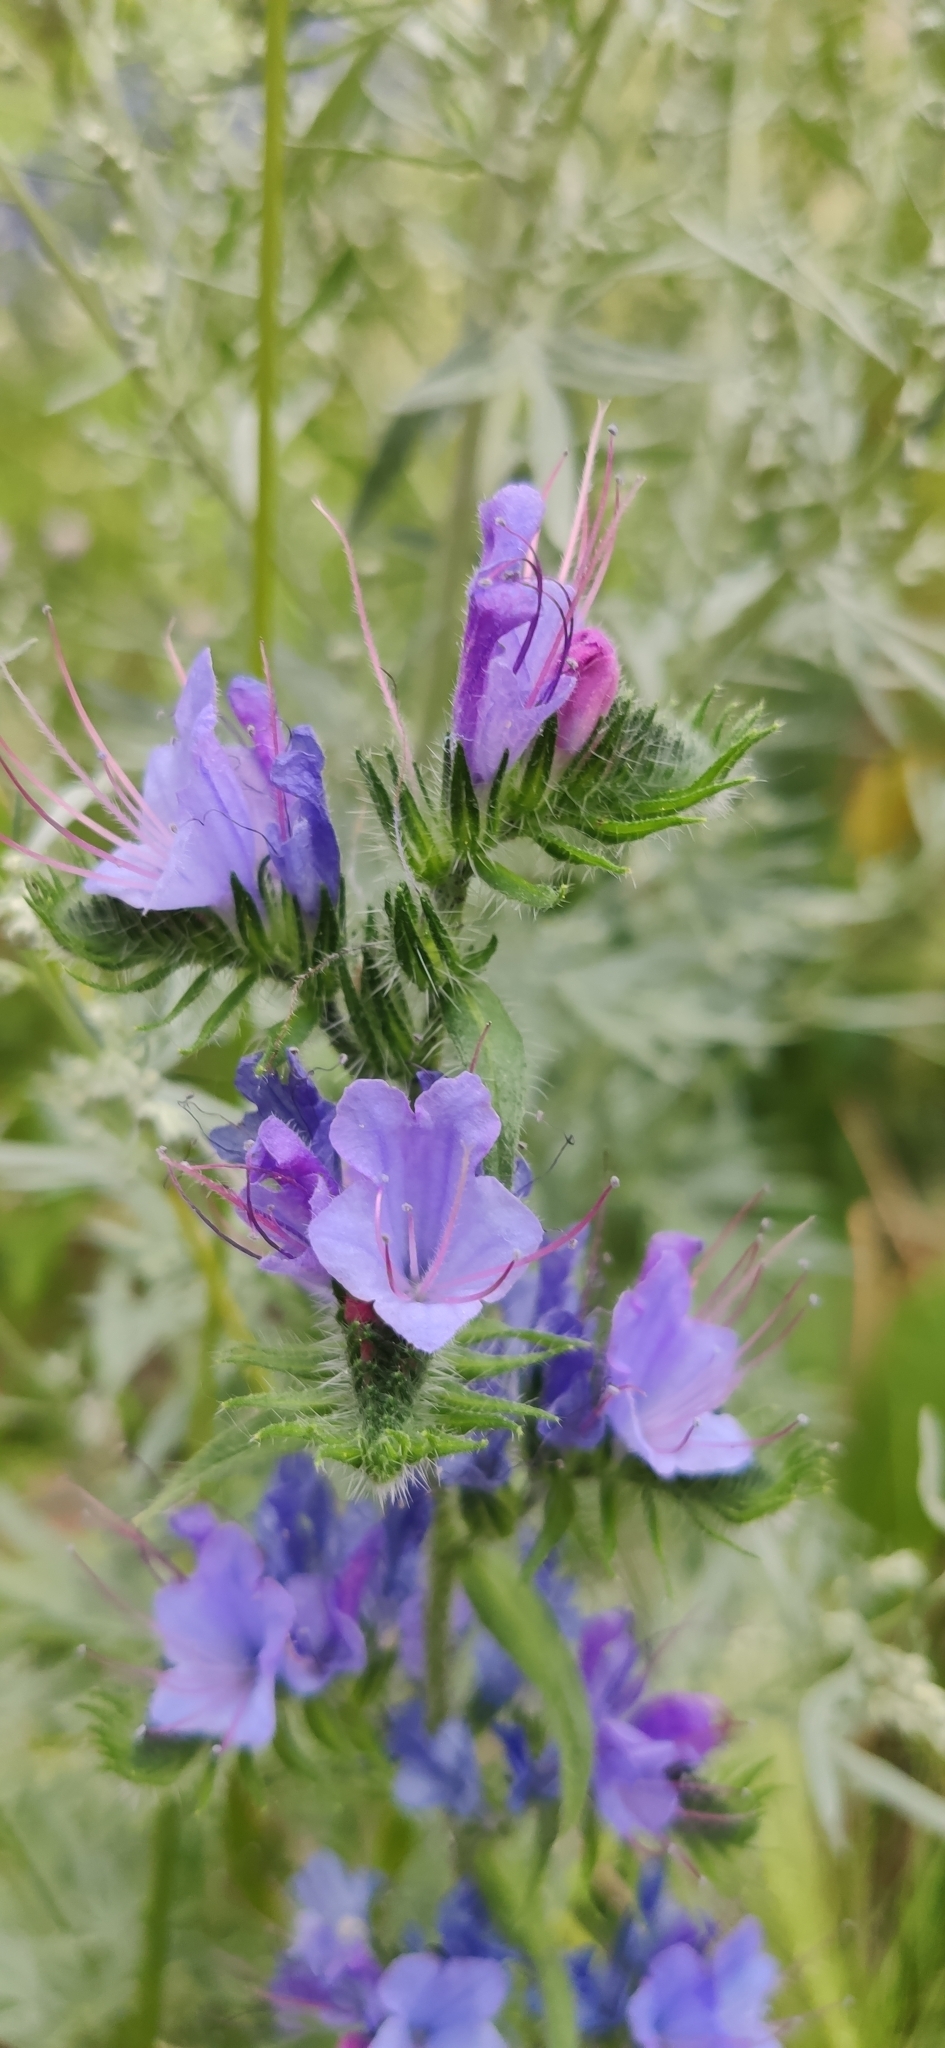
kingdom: Plantae
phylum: Tracheophyta
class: Magnoliopsida
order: Boraginales
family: Boraginaceae
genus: Echium
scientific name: Echium vulgare
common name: Common viper's bugloss
